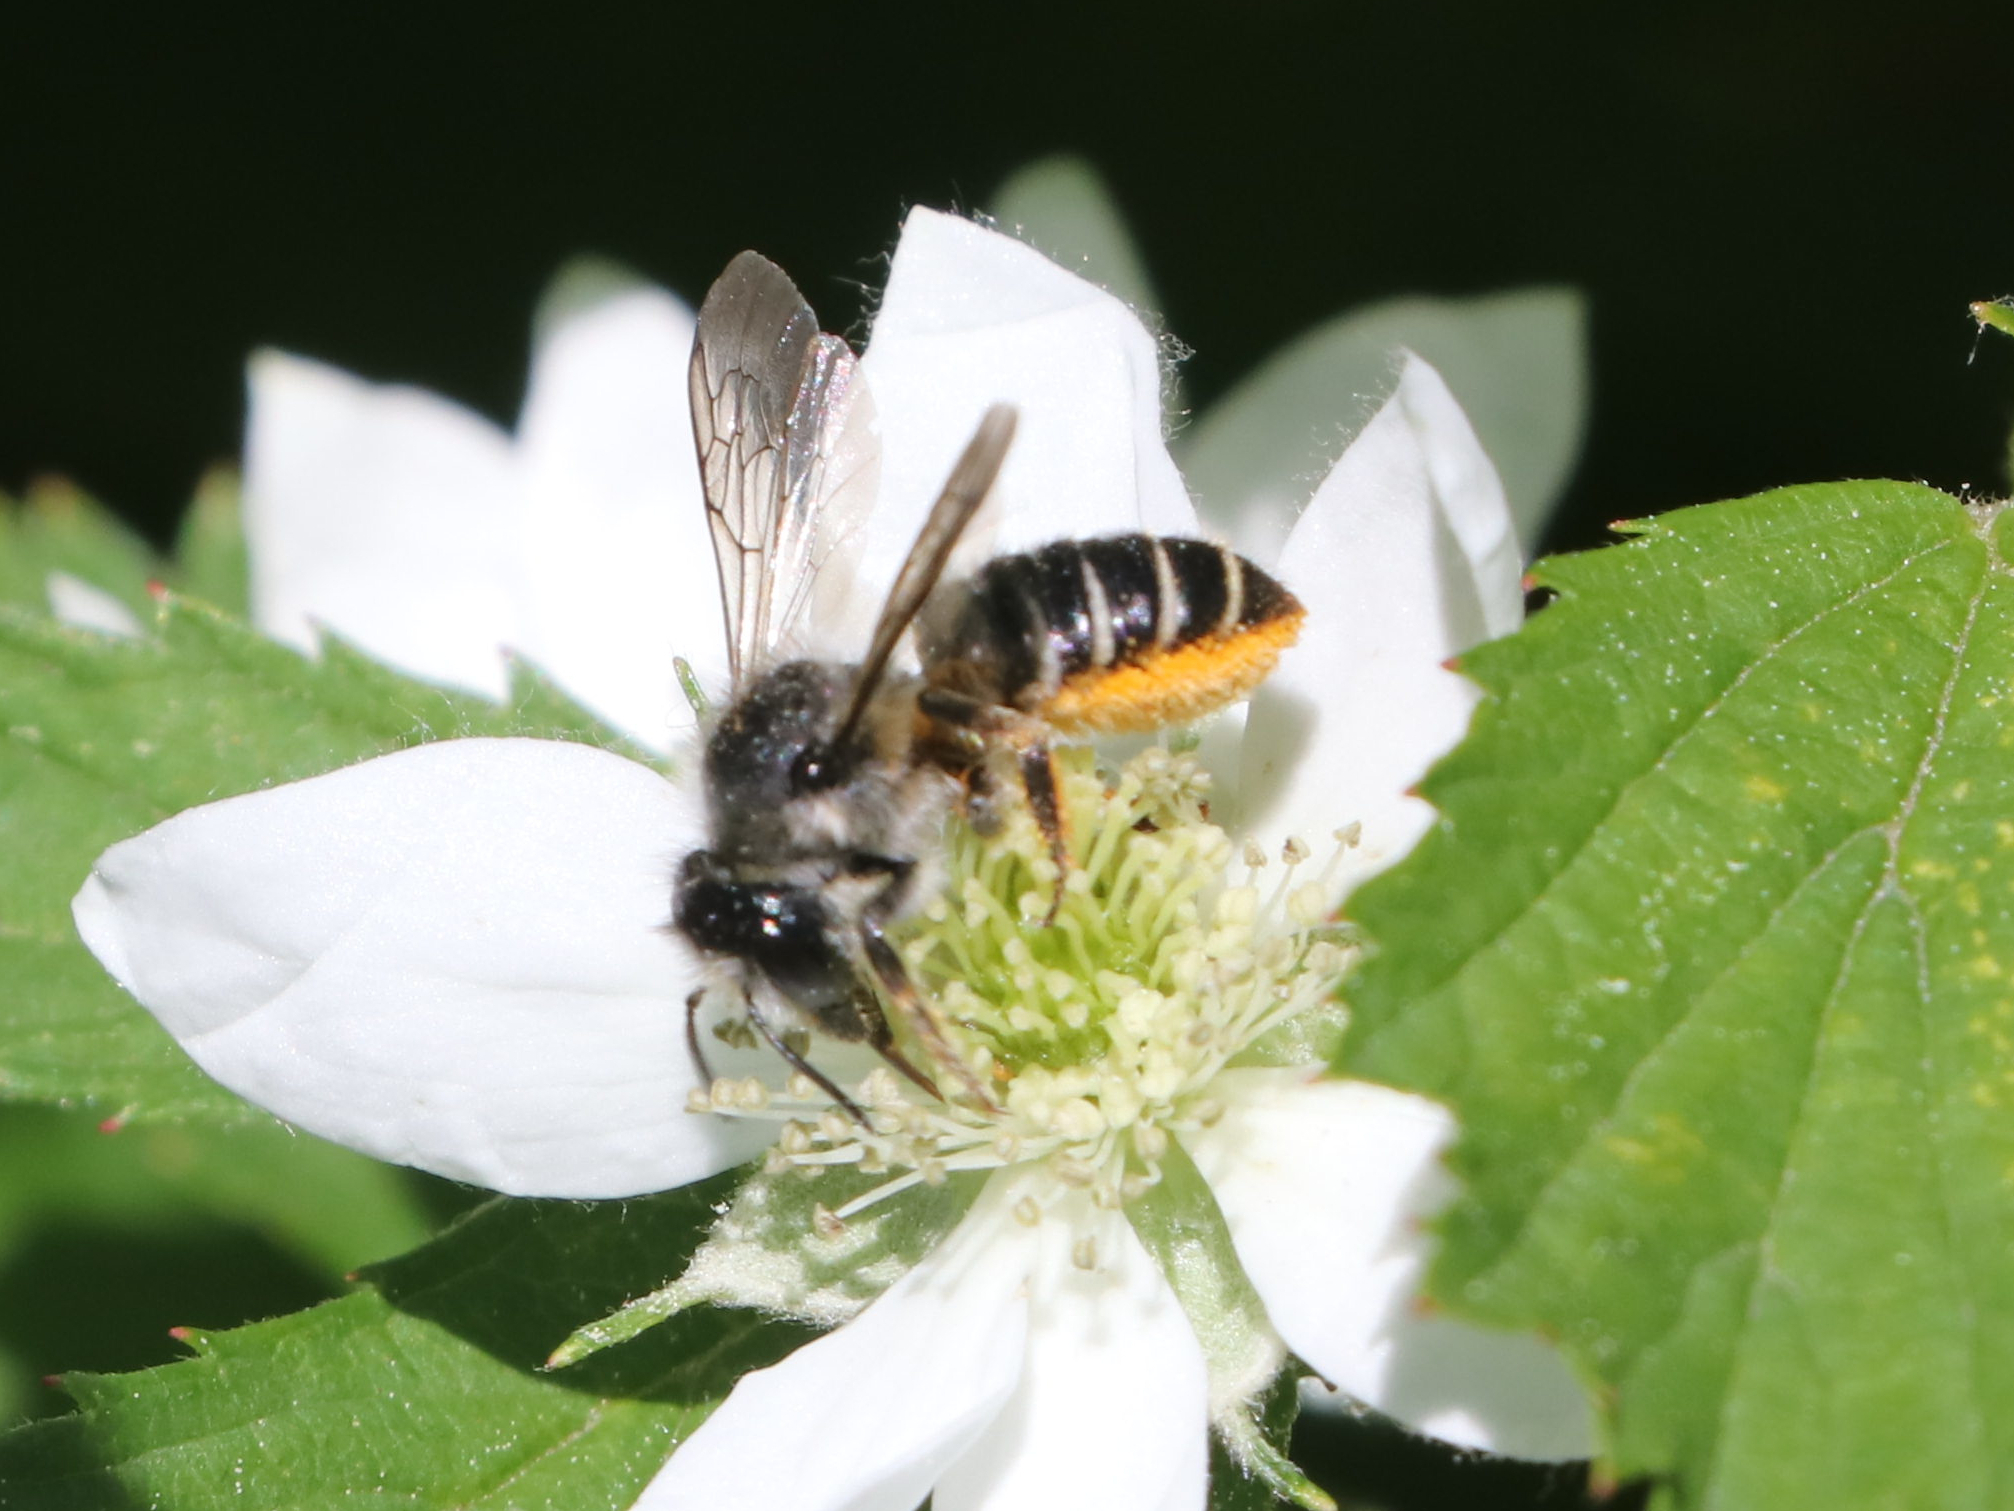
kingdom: Animalia
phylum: Arthropoda
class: Insecta
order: Hymenoptera
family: Megachilidae
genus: Megachile
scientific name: Megachile relativa
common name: Golden-tailed leafcutter
